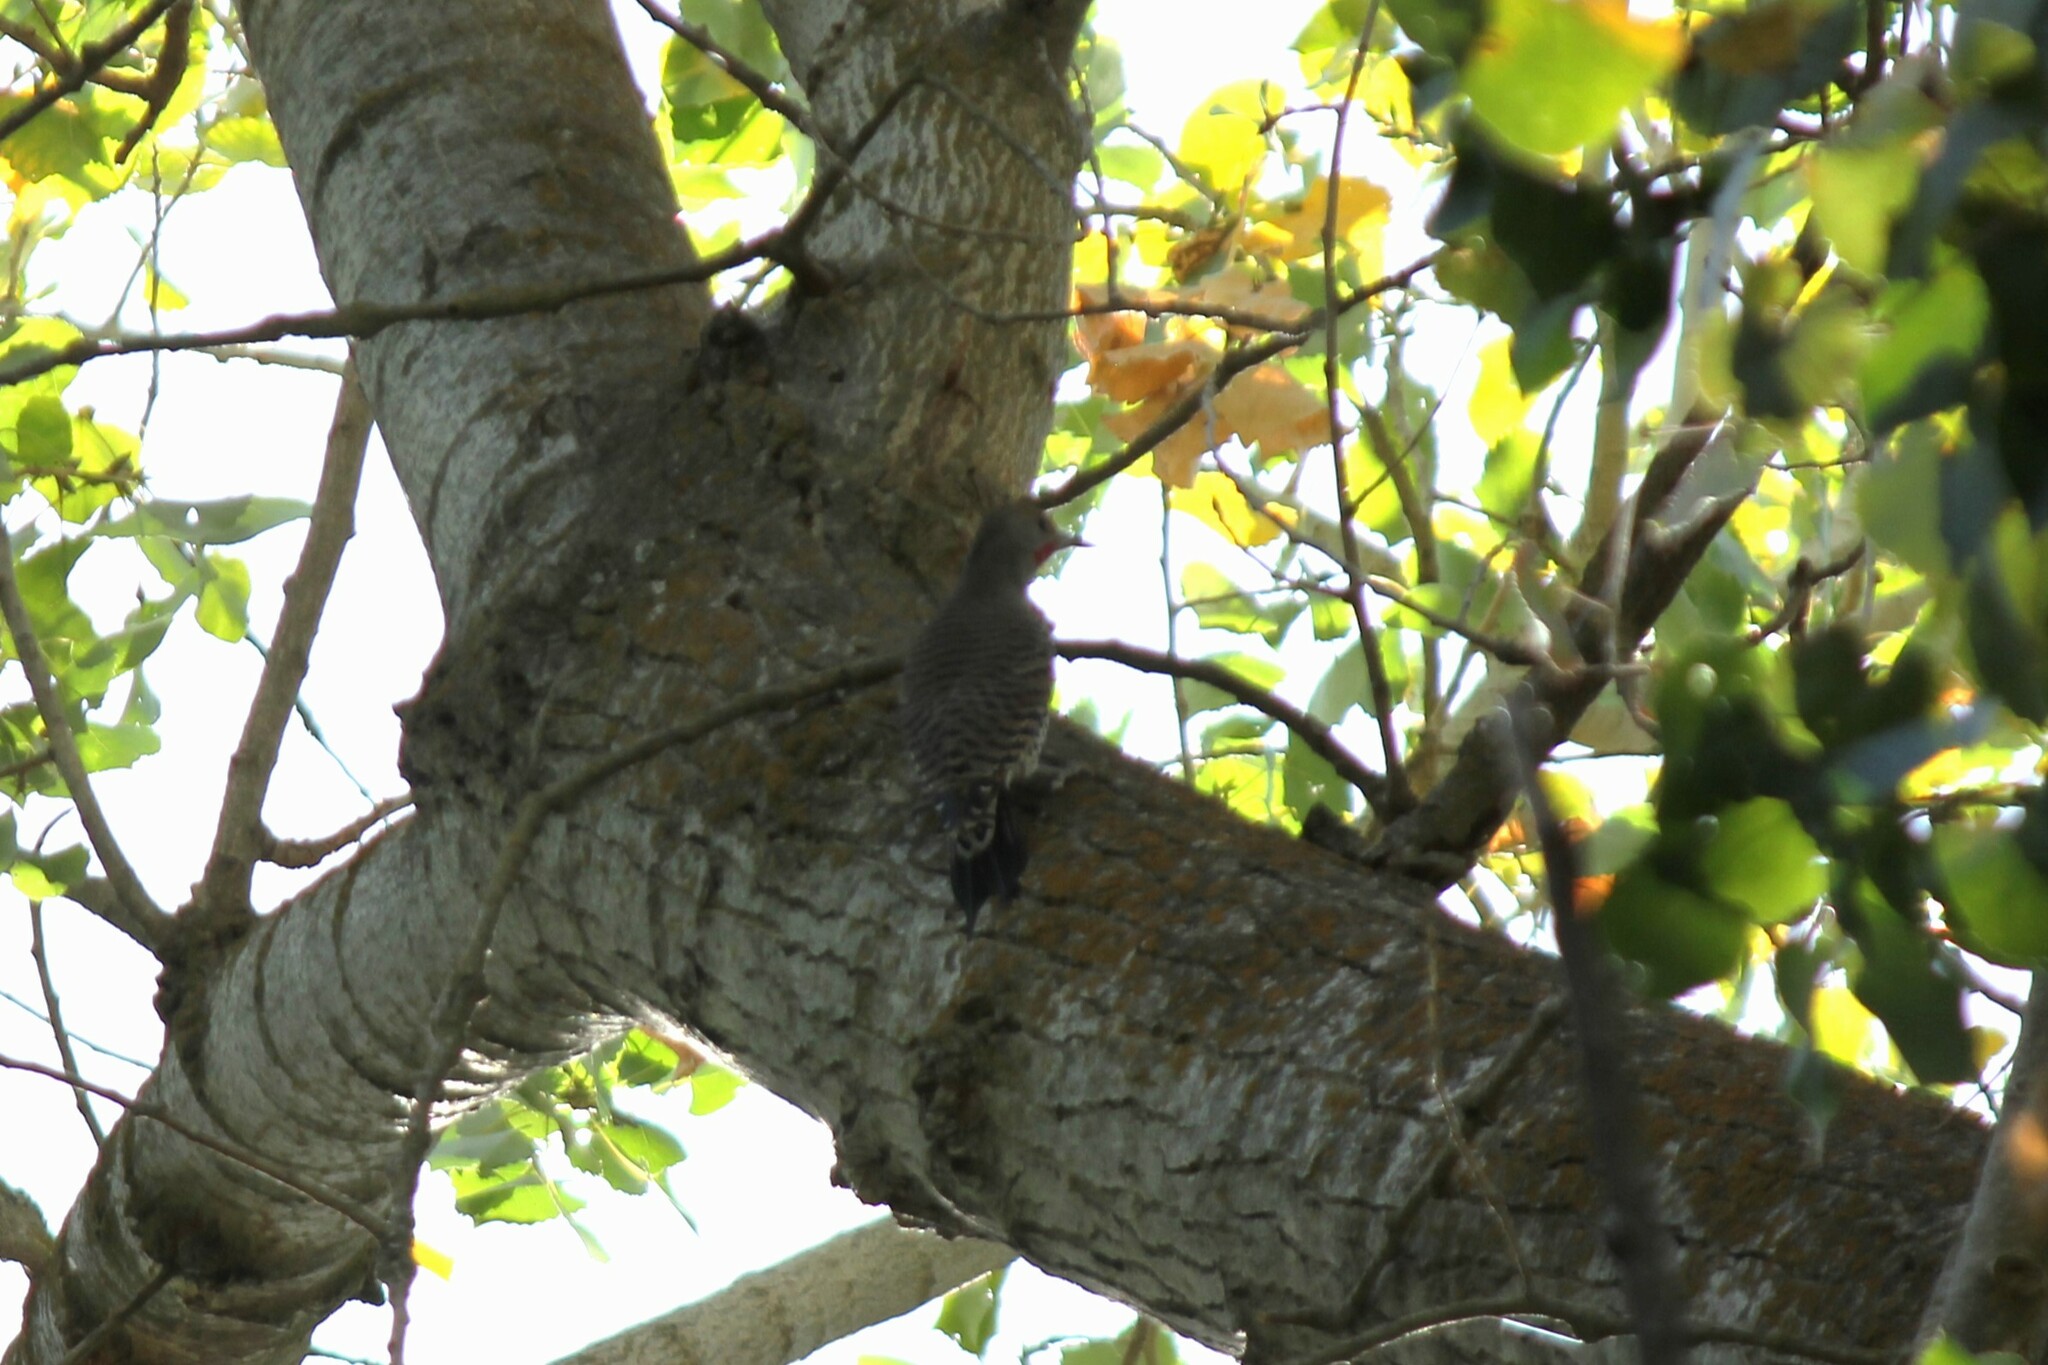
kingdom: Animalia
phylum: Chordata
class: Aves
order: Piciformes
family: Picidae
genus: Colaptes
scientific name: Colaptes auratus
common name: Northern flicker
